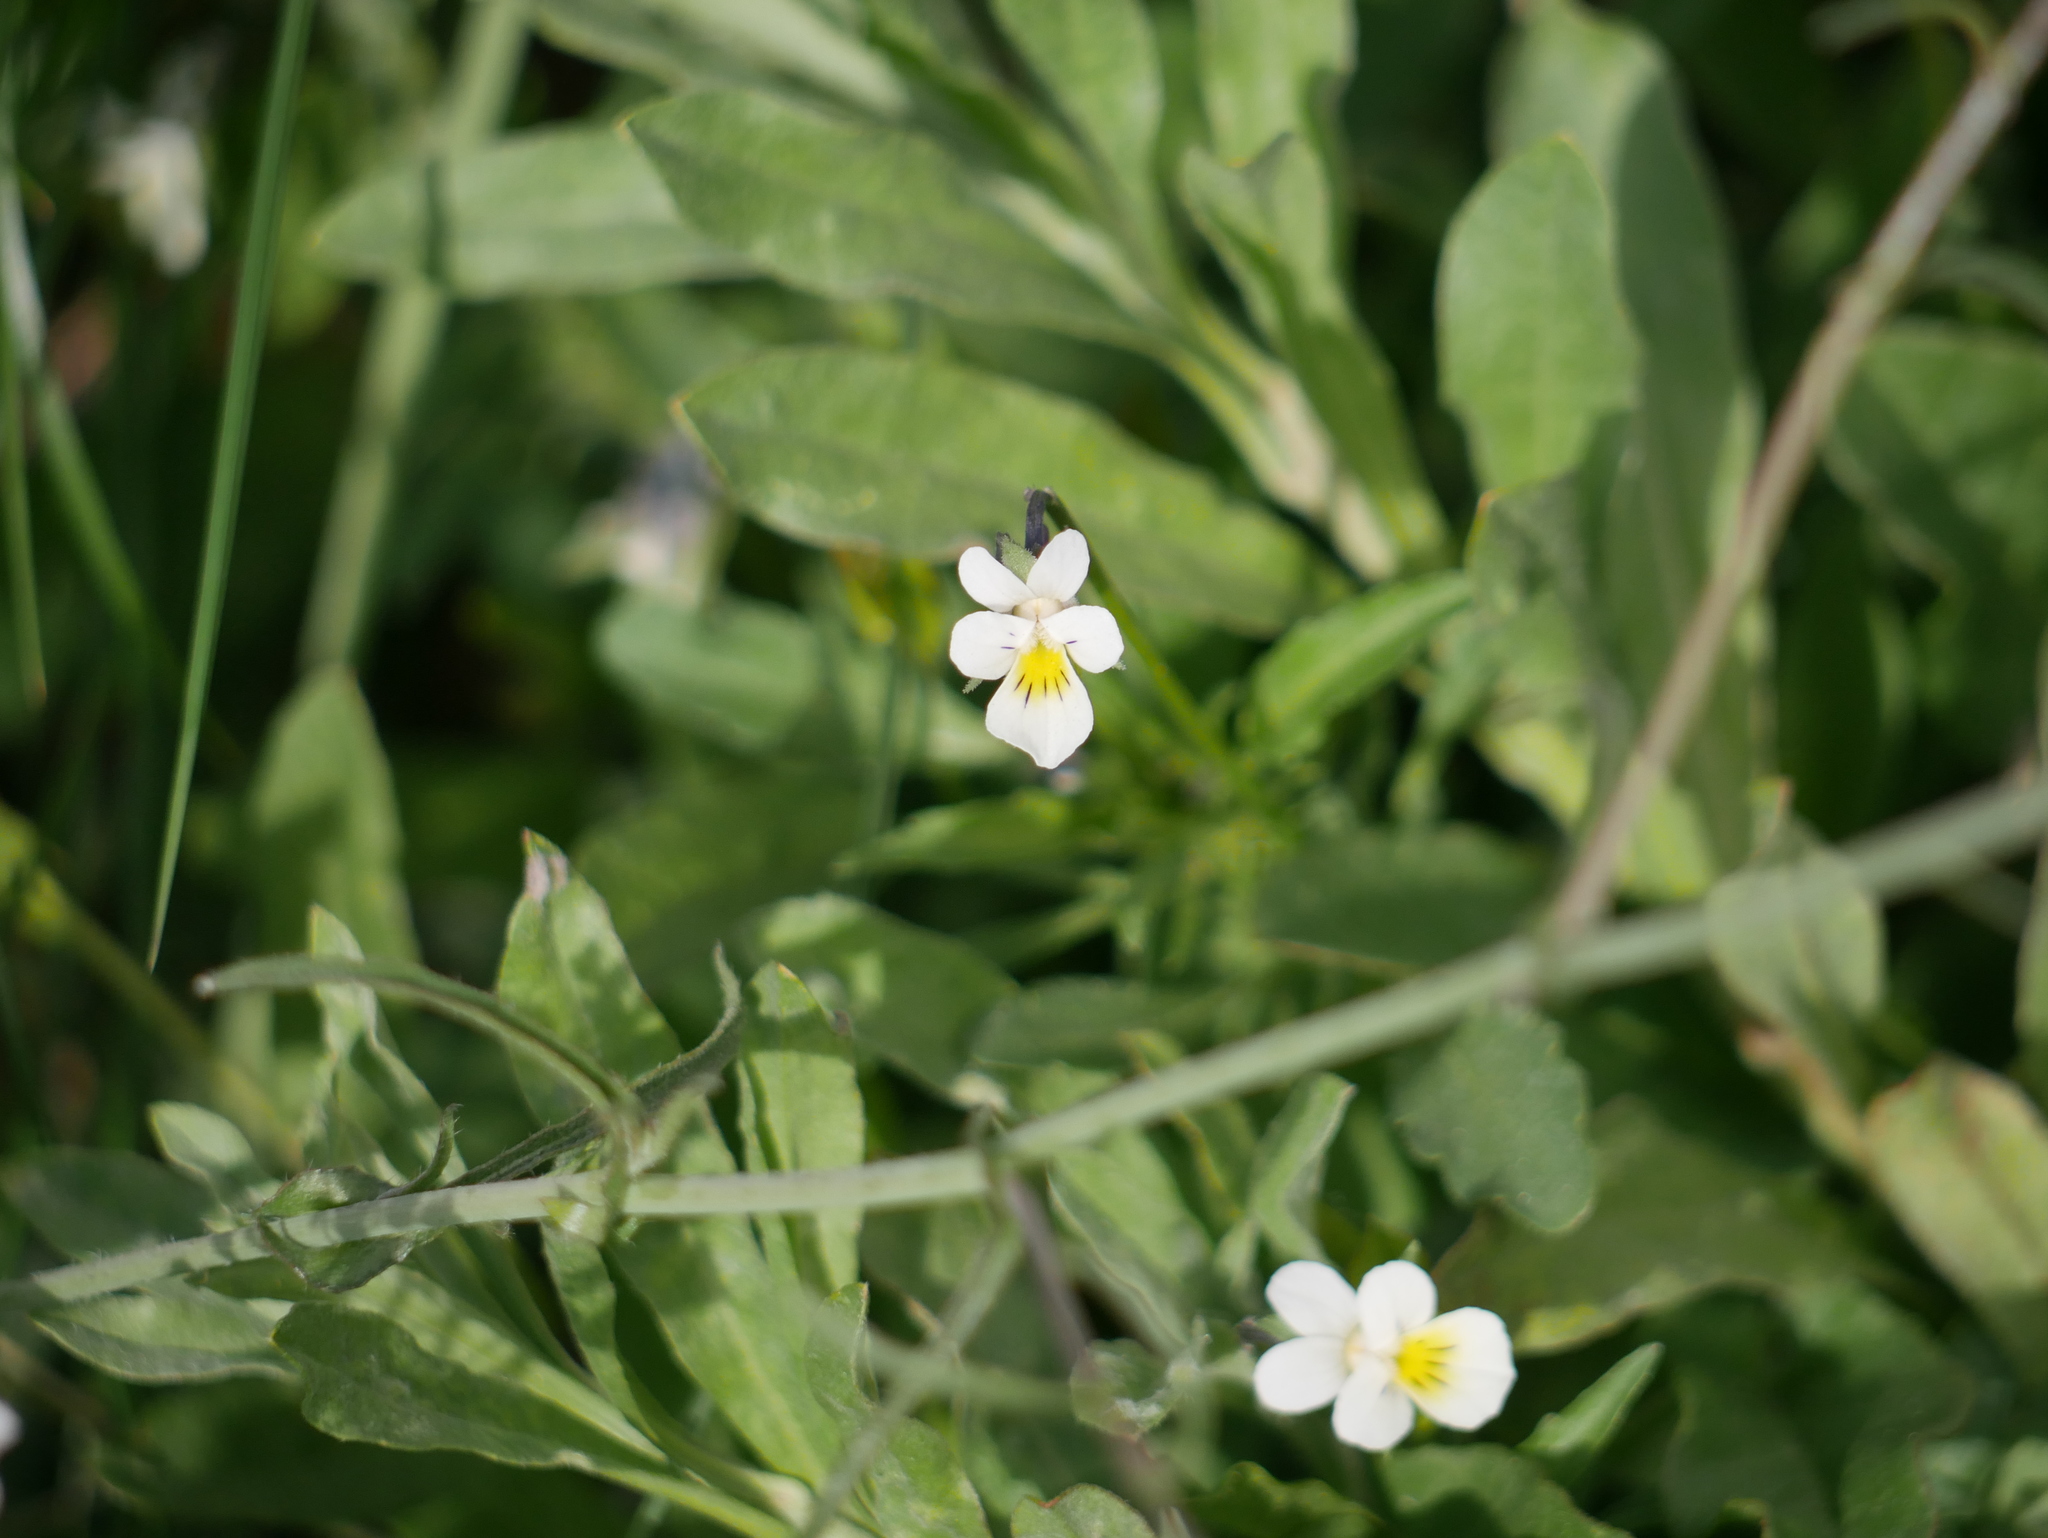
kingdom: Plantae
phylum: Tracheophyta
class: Magnoliopsida
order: Malpighiales
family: Violaceae
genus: Viola
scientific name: Viola arvensis
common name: Field pansy
